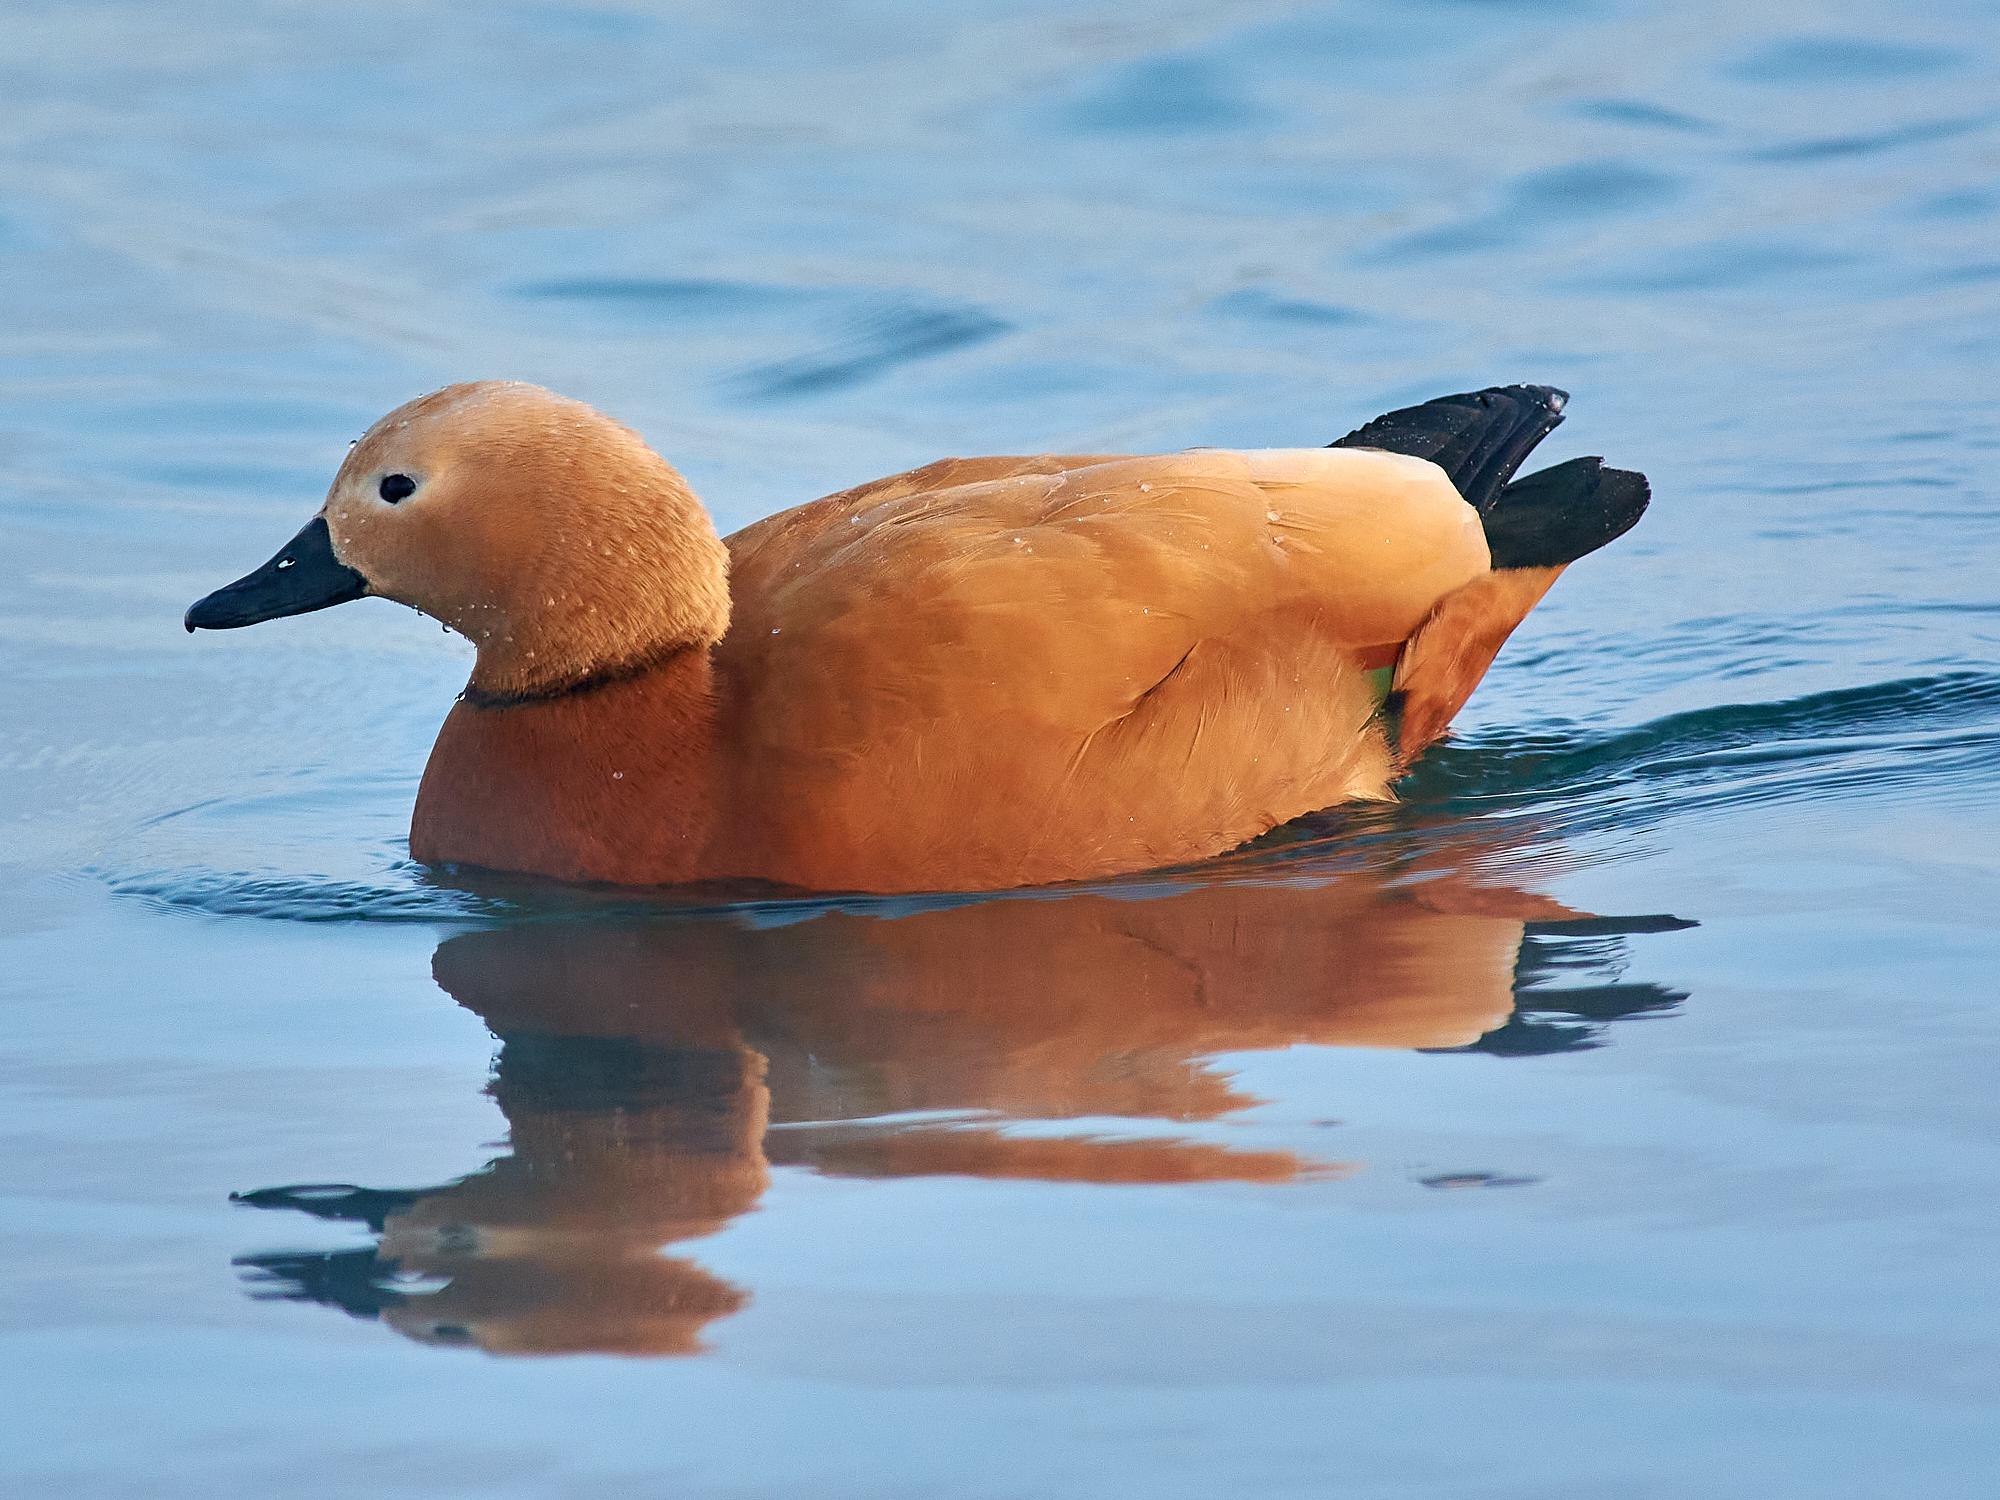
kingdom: Animalia
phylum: Chordata
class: Aves
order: Anseriformes
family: Anatidae
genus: Tadorna
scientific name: Tadorna ferruginea
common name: Ruddy shelduck
